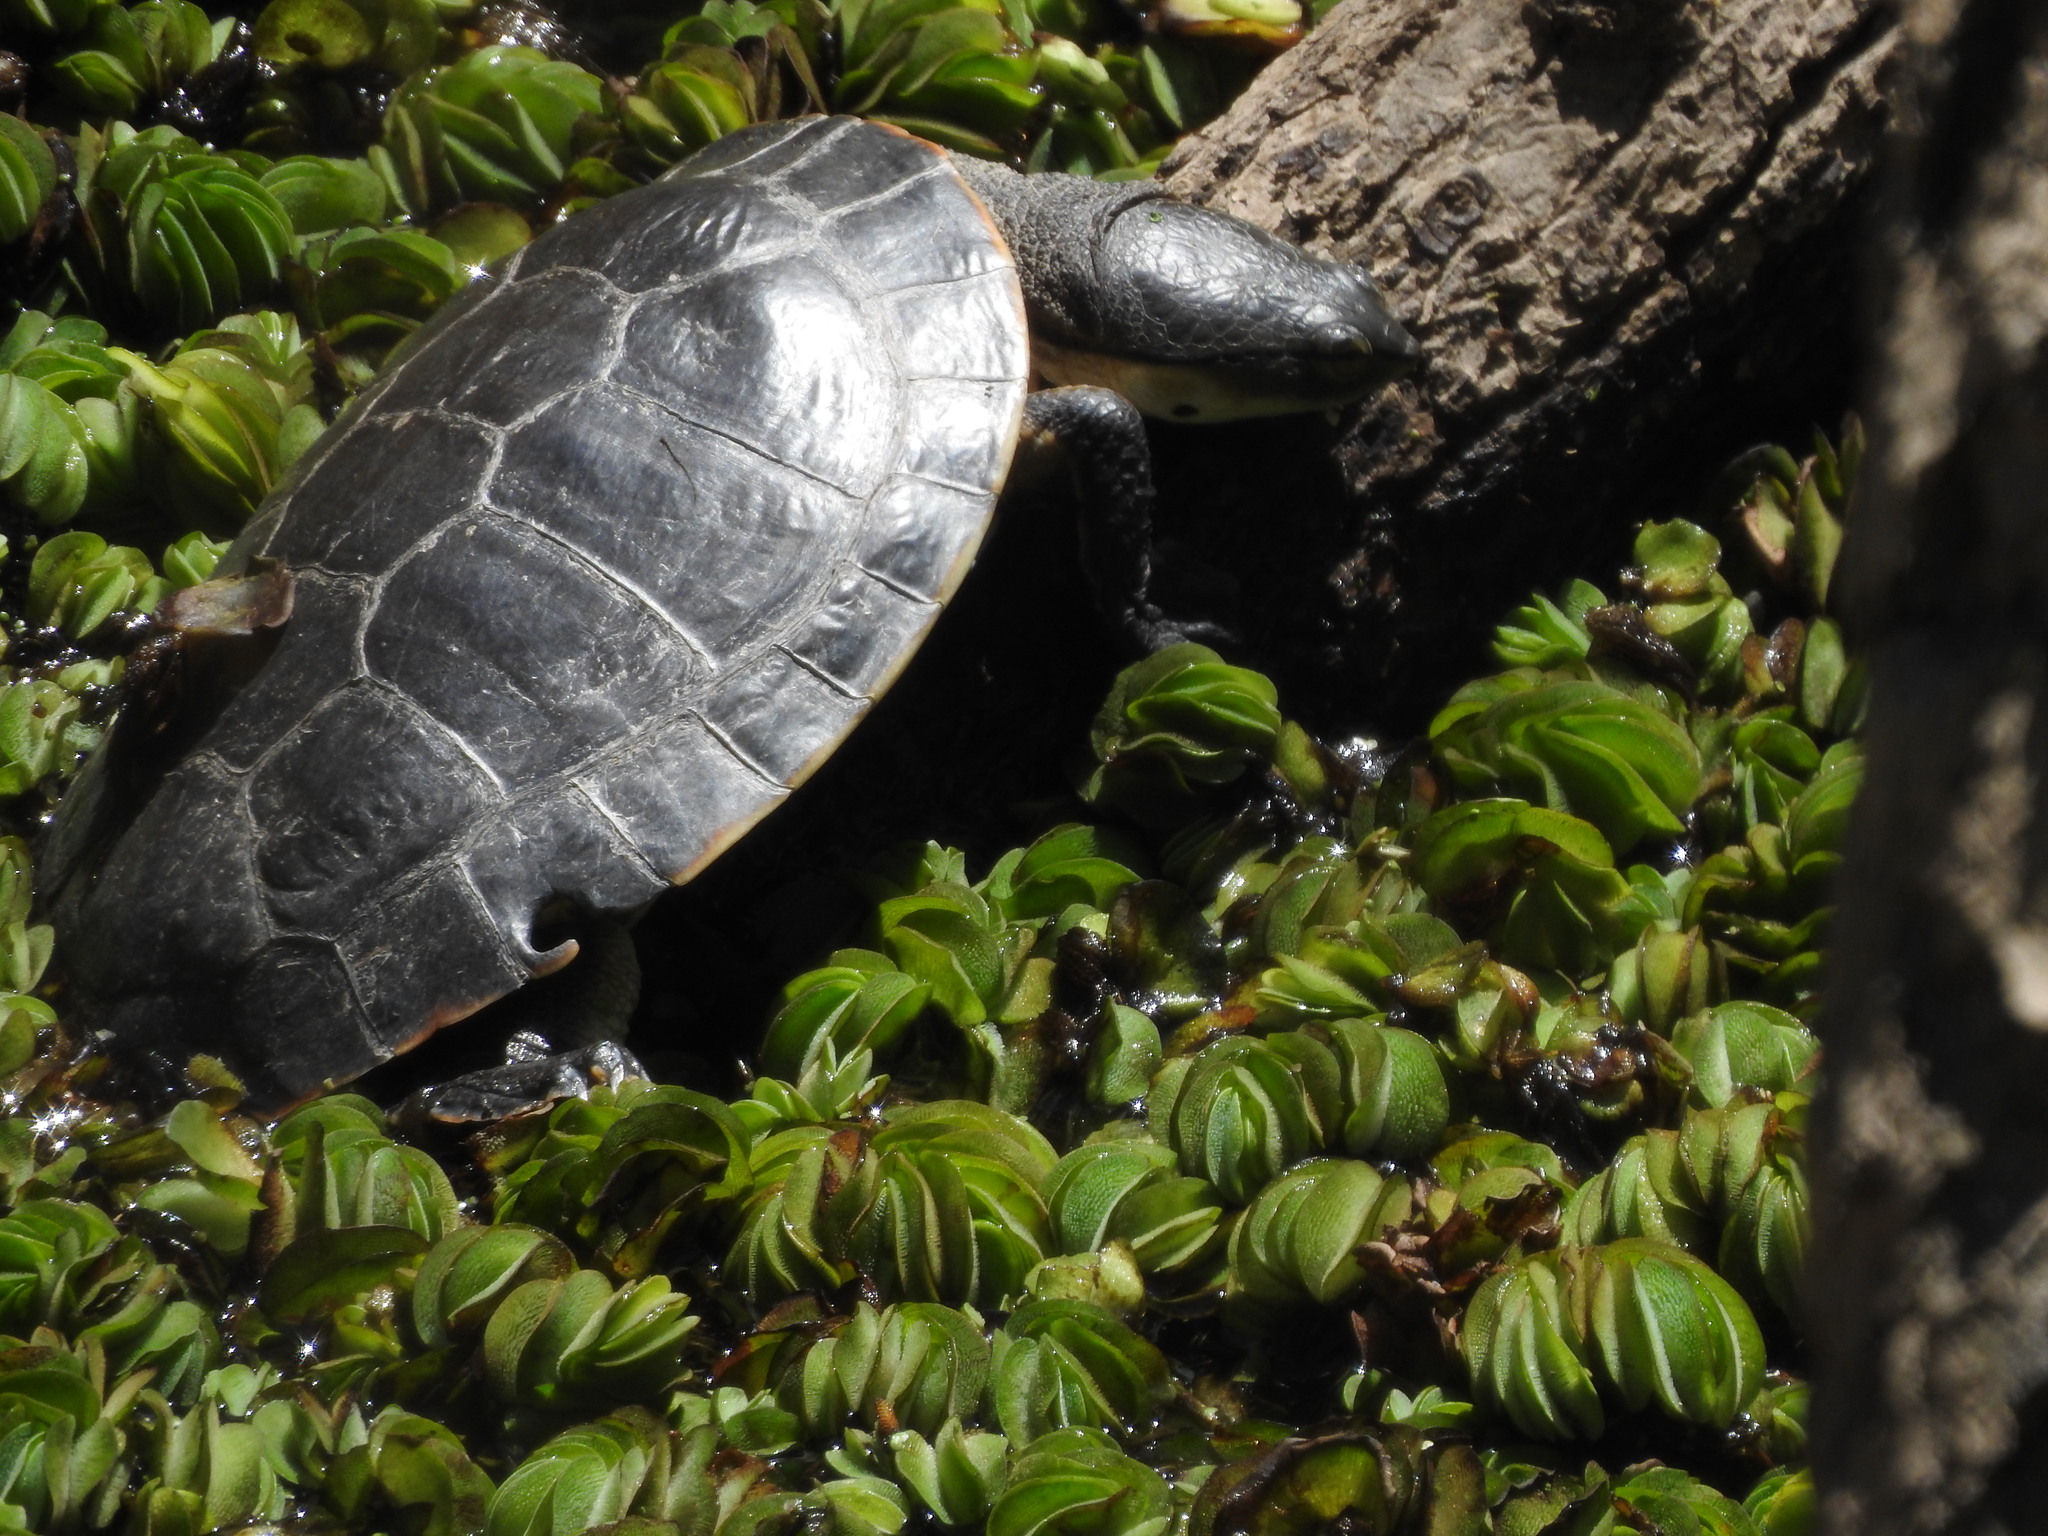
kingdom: Animalia
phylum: Chordata
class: Testudines
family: Chelidae
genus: Phrynops
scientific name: Phrynops hilarii
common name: Side-necked turtle of saint hillaire
